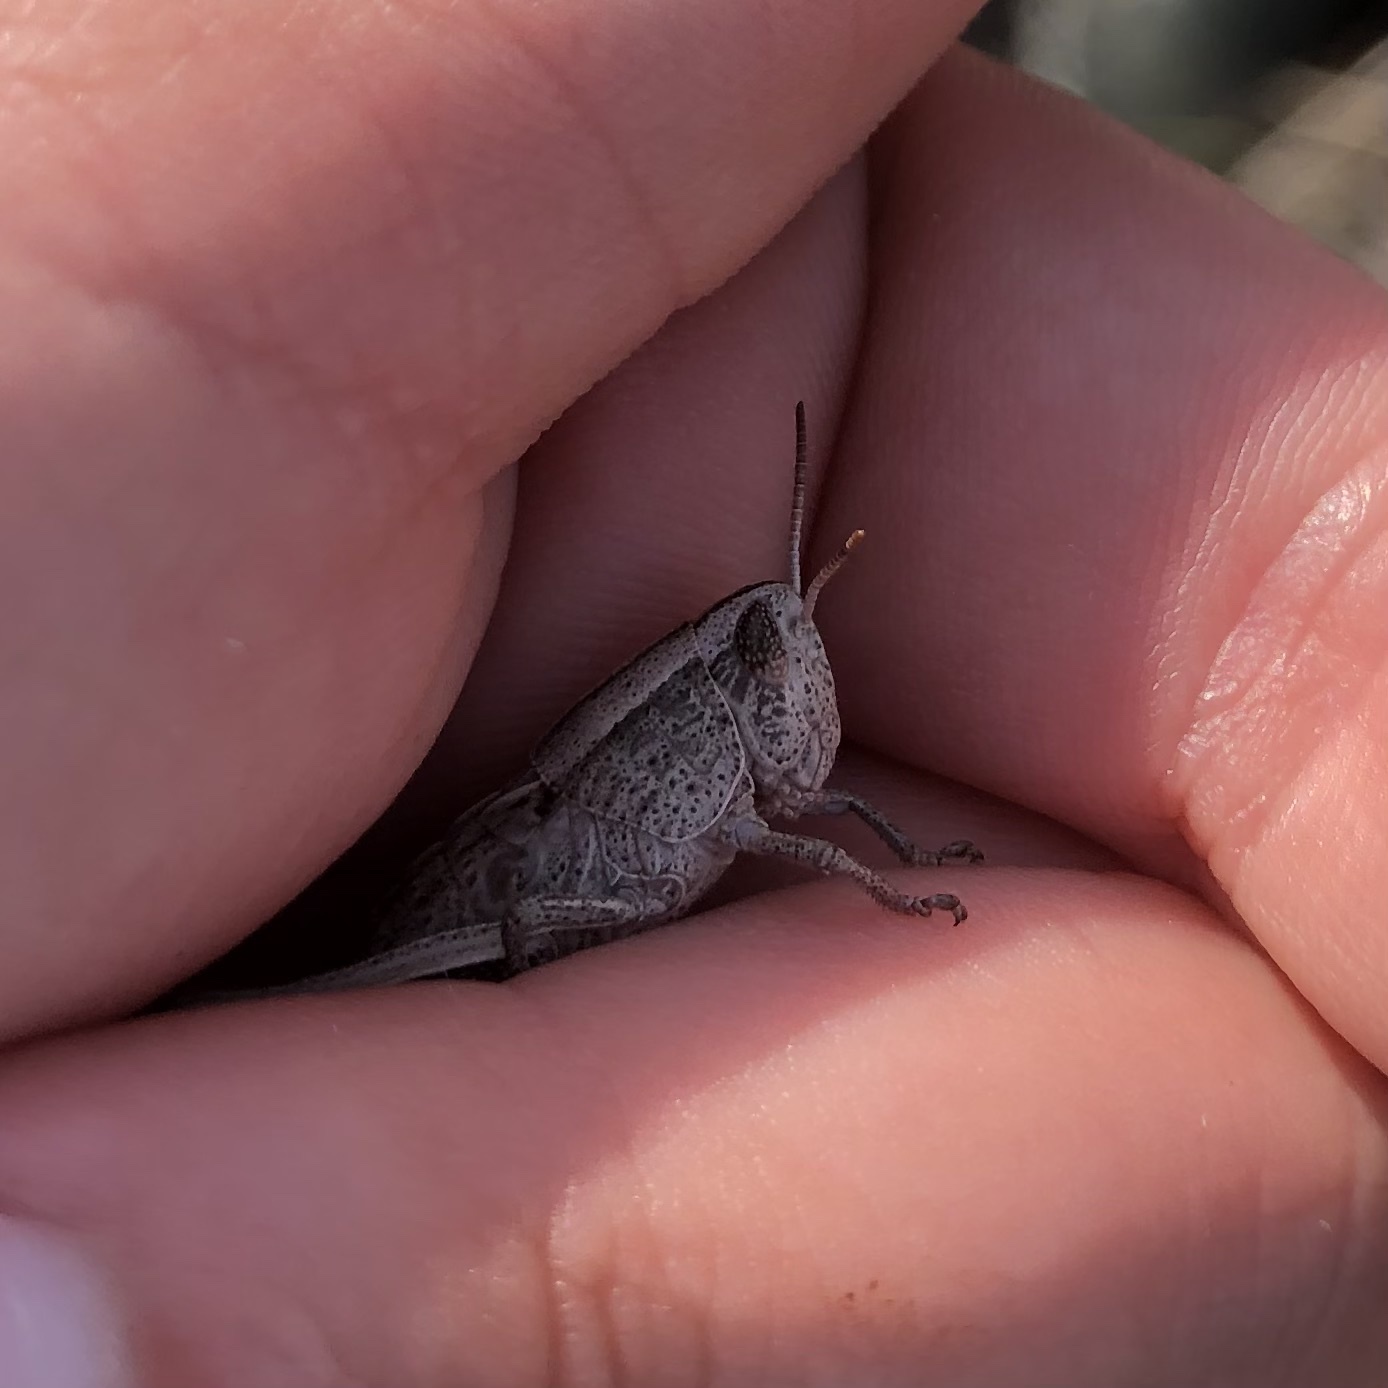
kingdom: Animalia
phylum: Arthropoda
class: Insecta
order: Orthoptera
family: Acrididae
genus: Paratylotropidia
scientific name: Paratylotropidia brunneri
